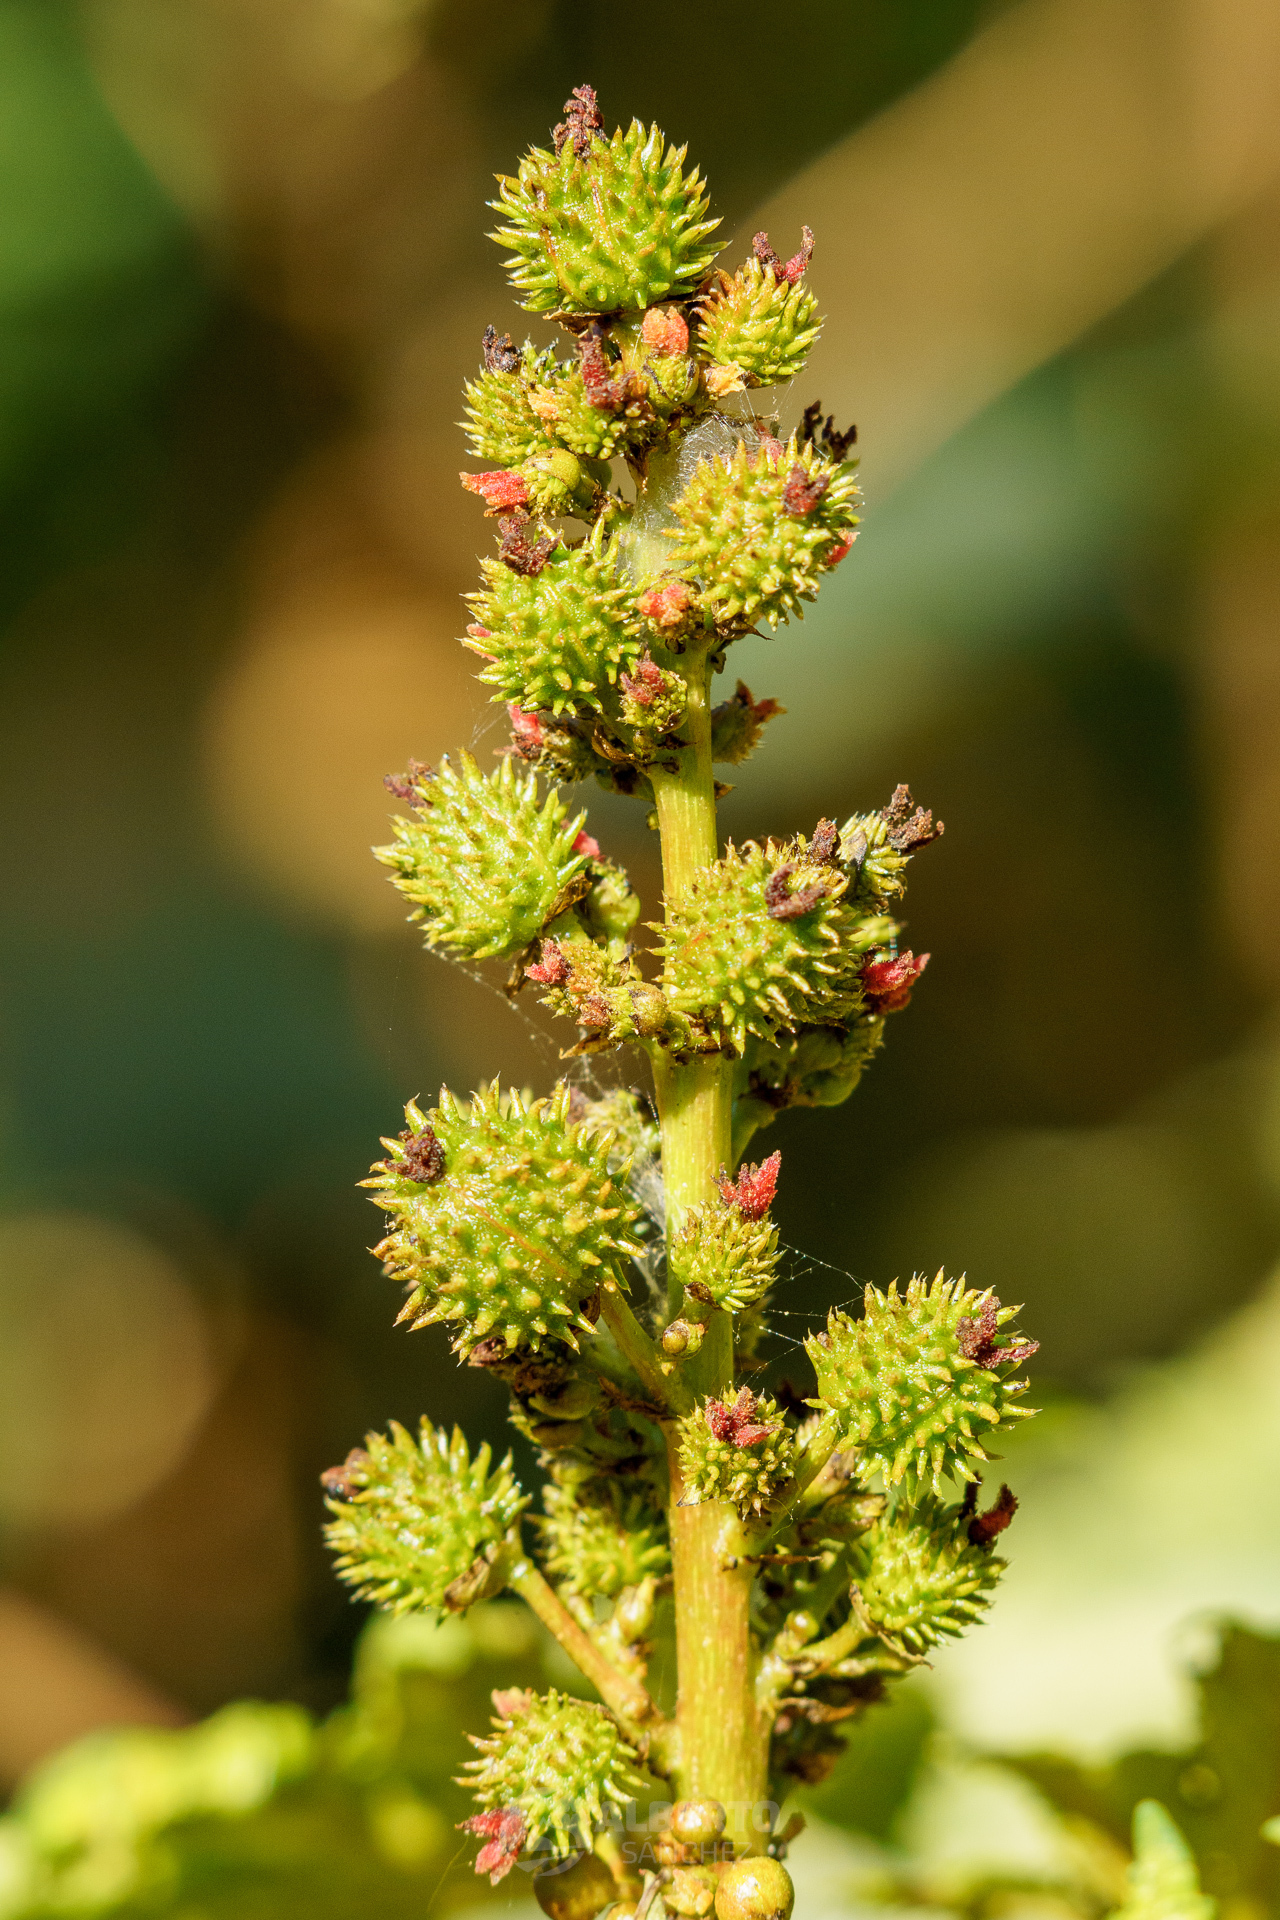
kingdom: Plantae
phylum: Tracheophyta
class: Magnoliopsida
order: Malpighiales
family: Euphorbiaceae
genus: Ricinus
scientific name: Ricinus communis
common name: Castor-oil-plant
